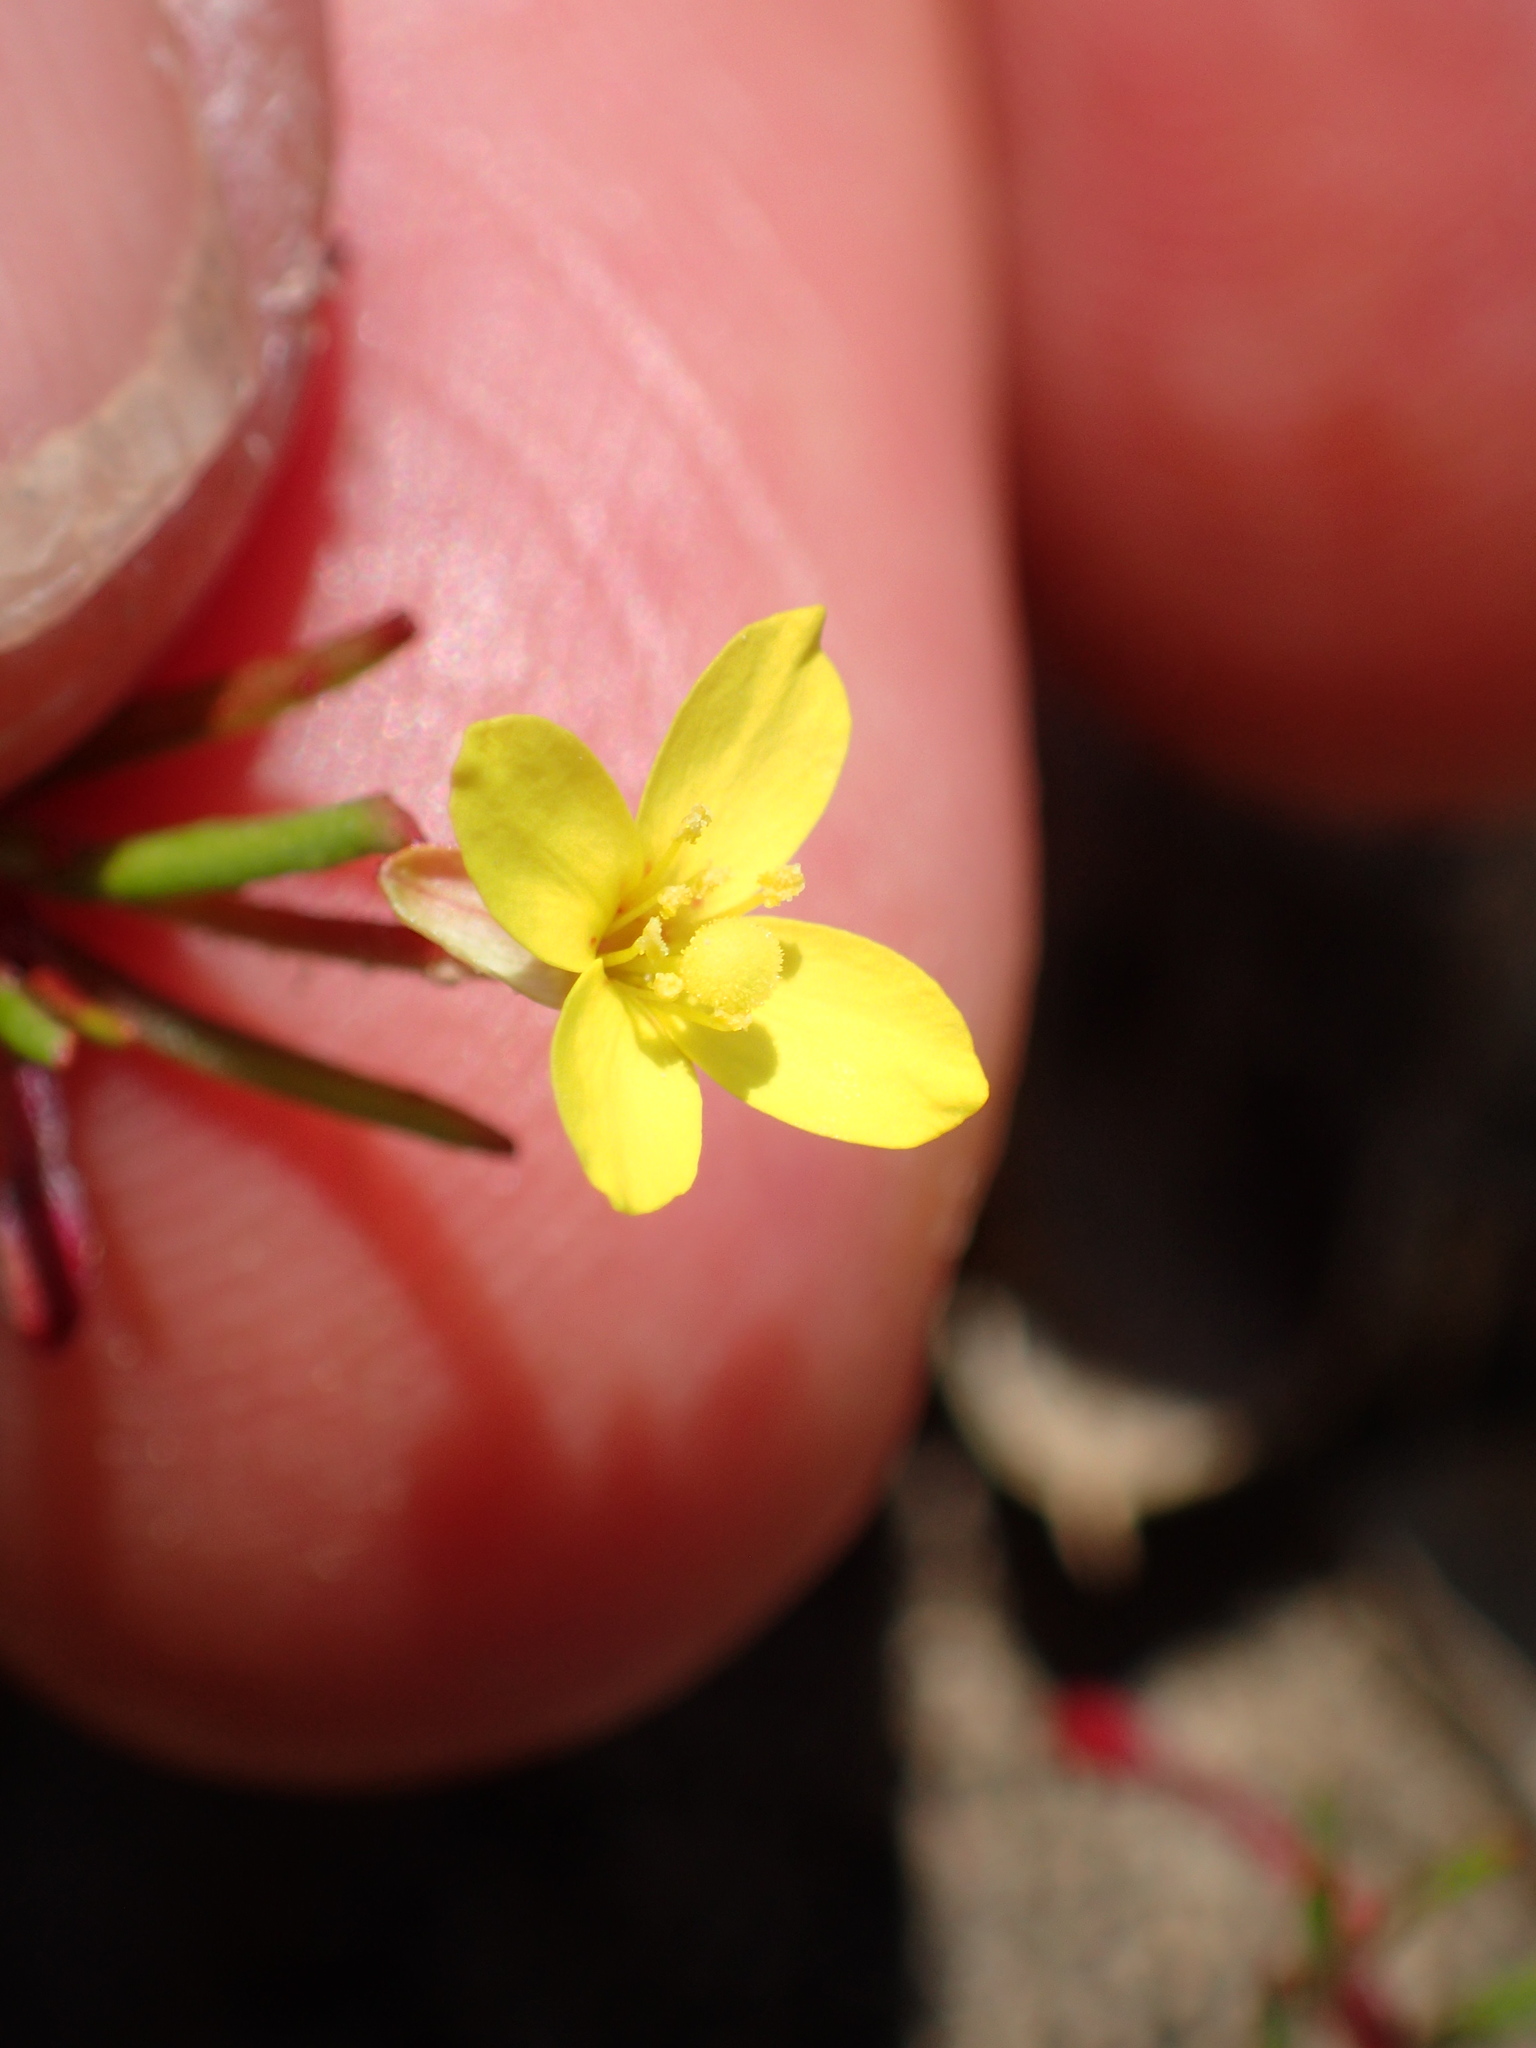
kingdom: Plantae
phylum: Tracheophyta
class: Magnoliopsida
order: Myrtales
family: Onagraceae
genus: Camissonia
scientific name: Camissonia strigulosa
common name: Contorted-primrose
